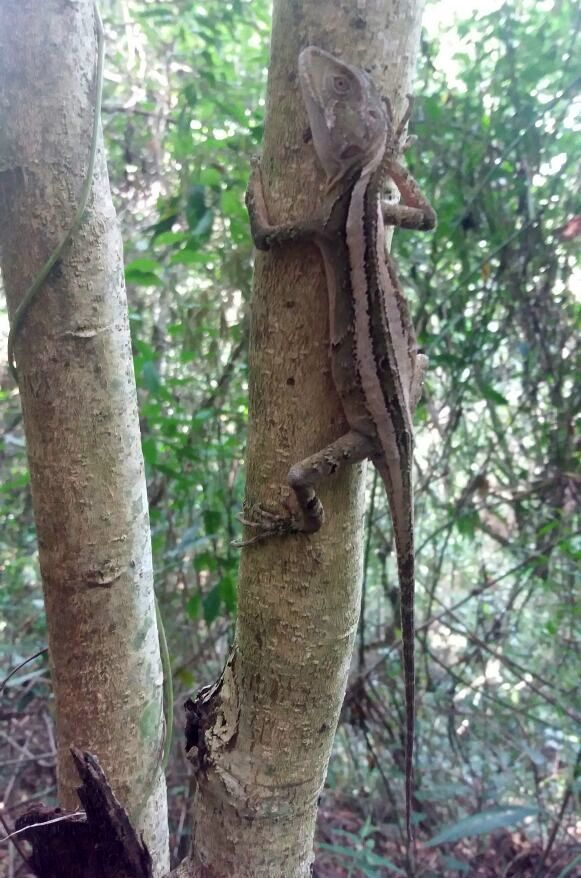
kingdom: Animalia
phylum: Chordata
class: Squamata
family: Leiosauridae
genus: Enyalius
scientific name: Enyalius iheringii
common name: Ihering's fathead anole
